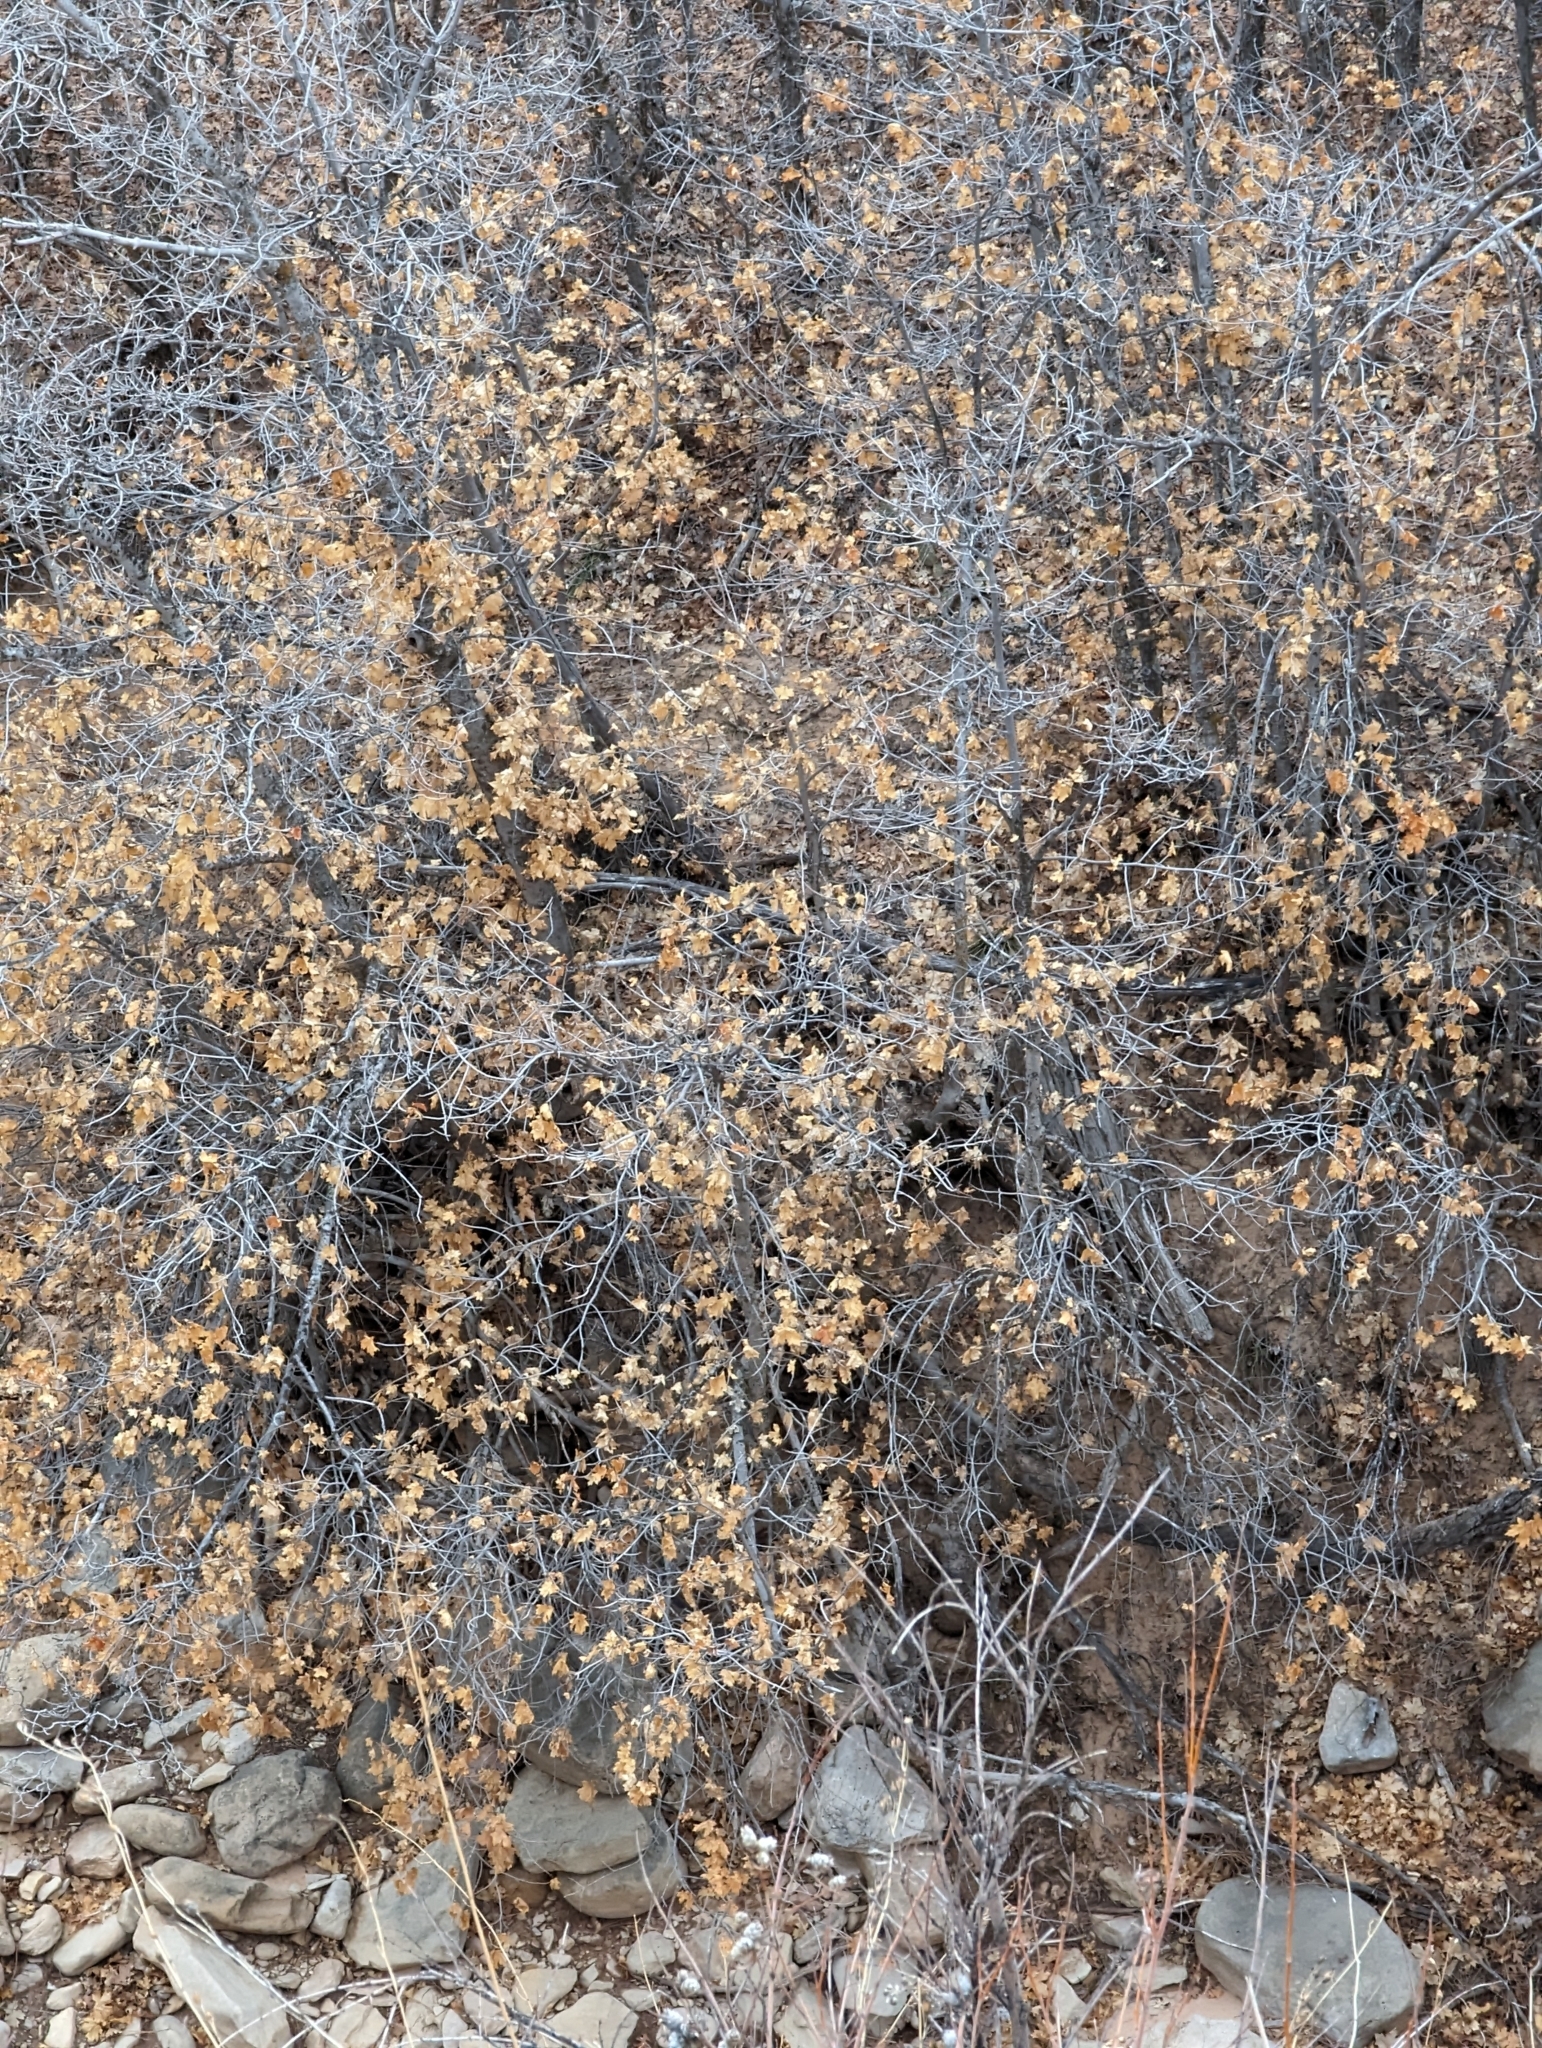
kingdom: Plantae
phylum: Tracheophyta
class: Magnoliopsida
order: Sapindales
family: Sapindaceae
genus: Acer
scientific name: Acer grandidentatum
